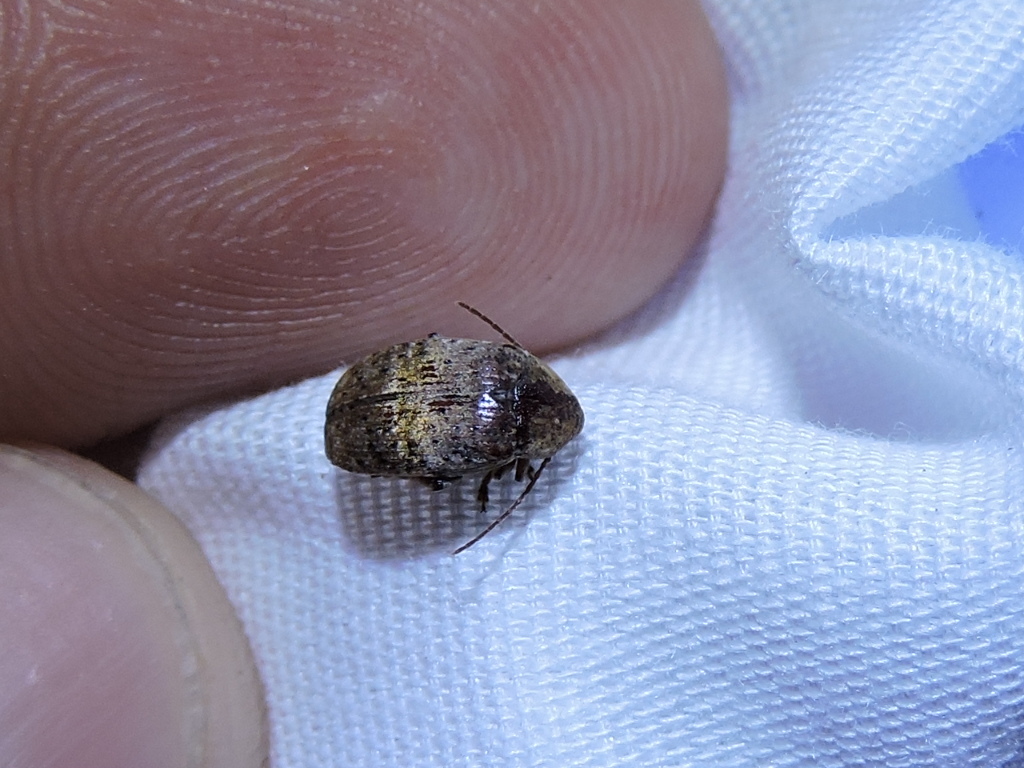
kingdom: Animalia
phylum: Arthropoda
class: Insecta
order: Coleoptera
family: Chrysomelidae
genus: Amblycerus
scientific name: Amblycerus robiniae
